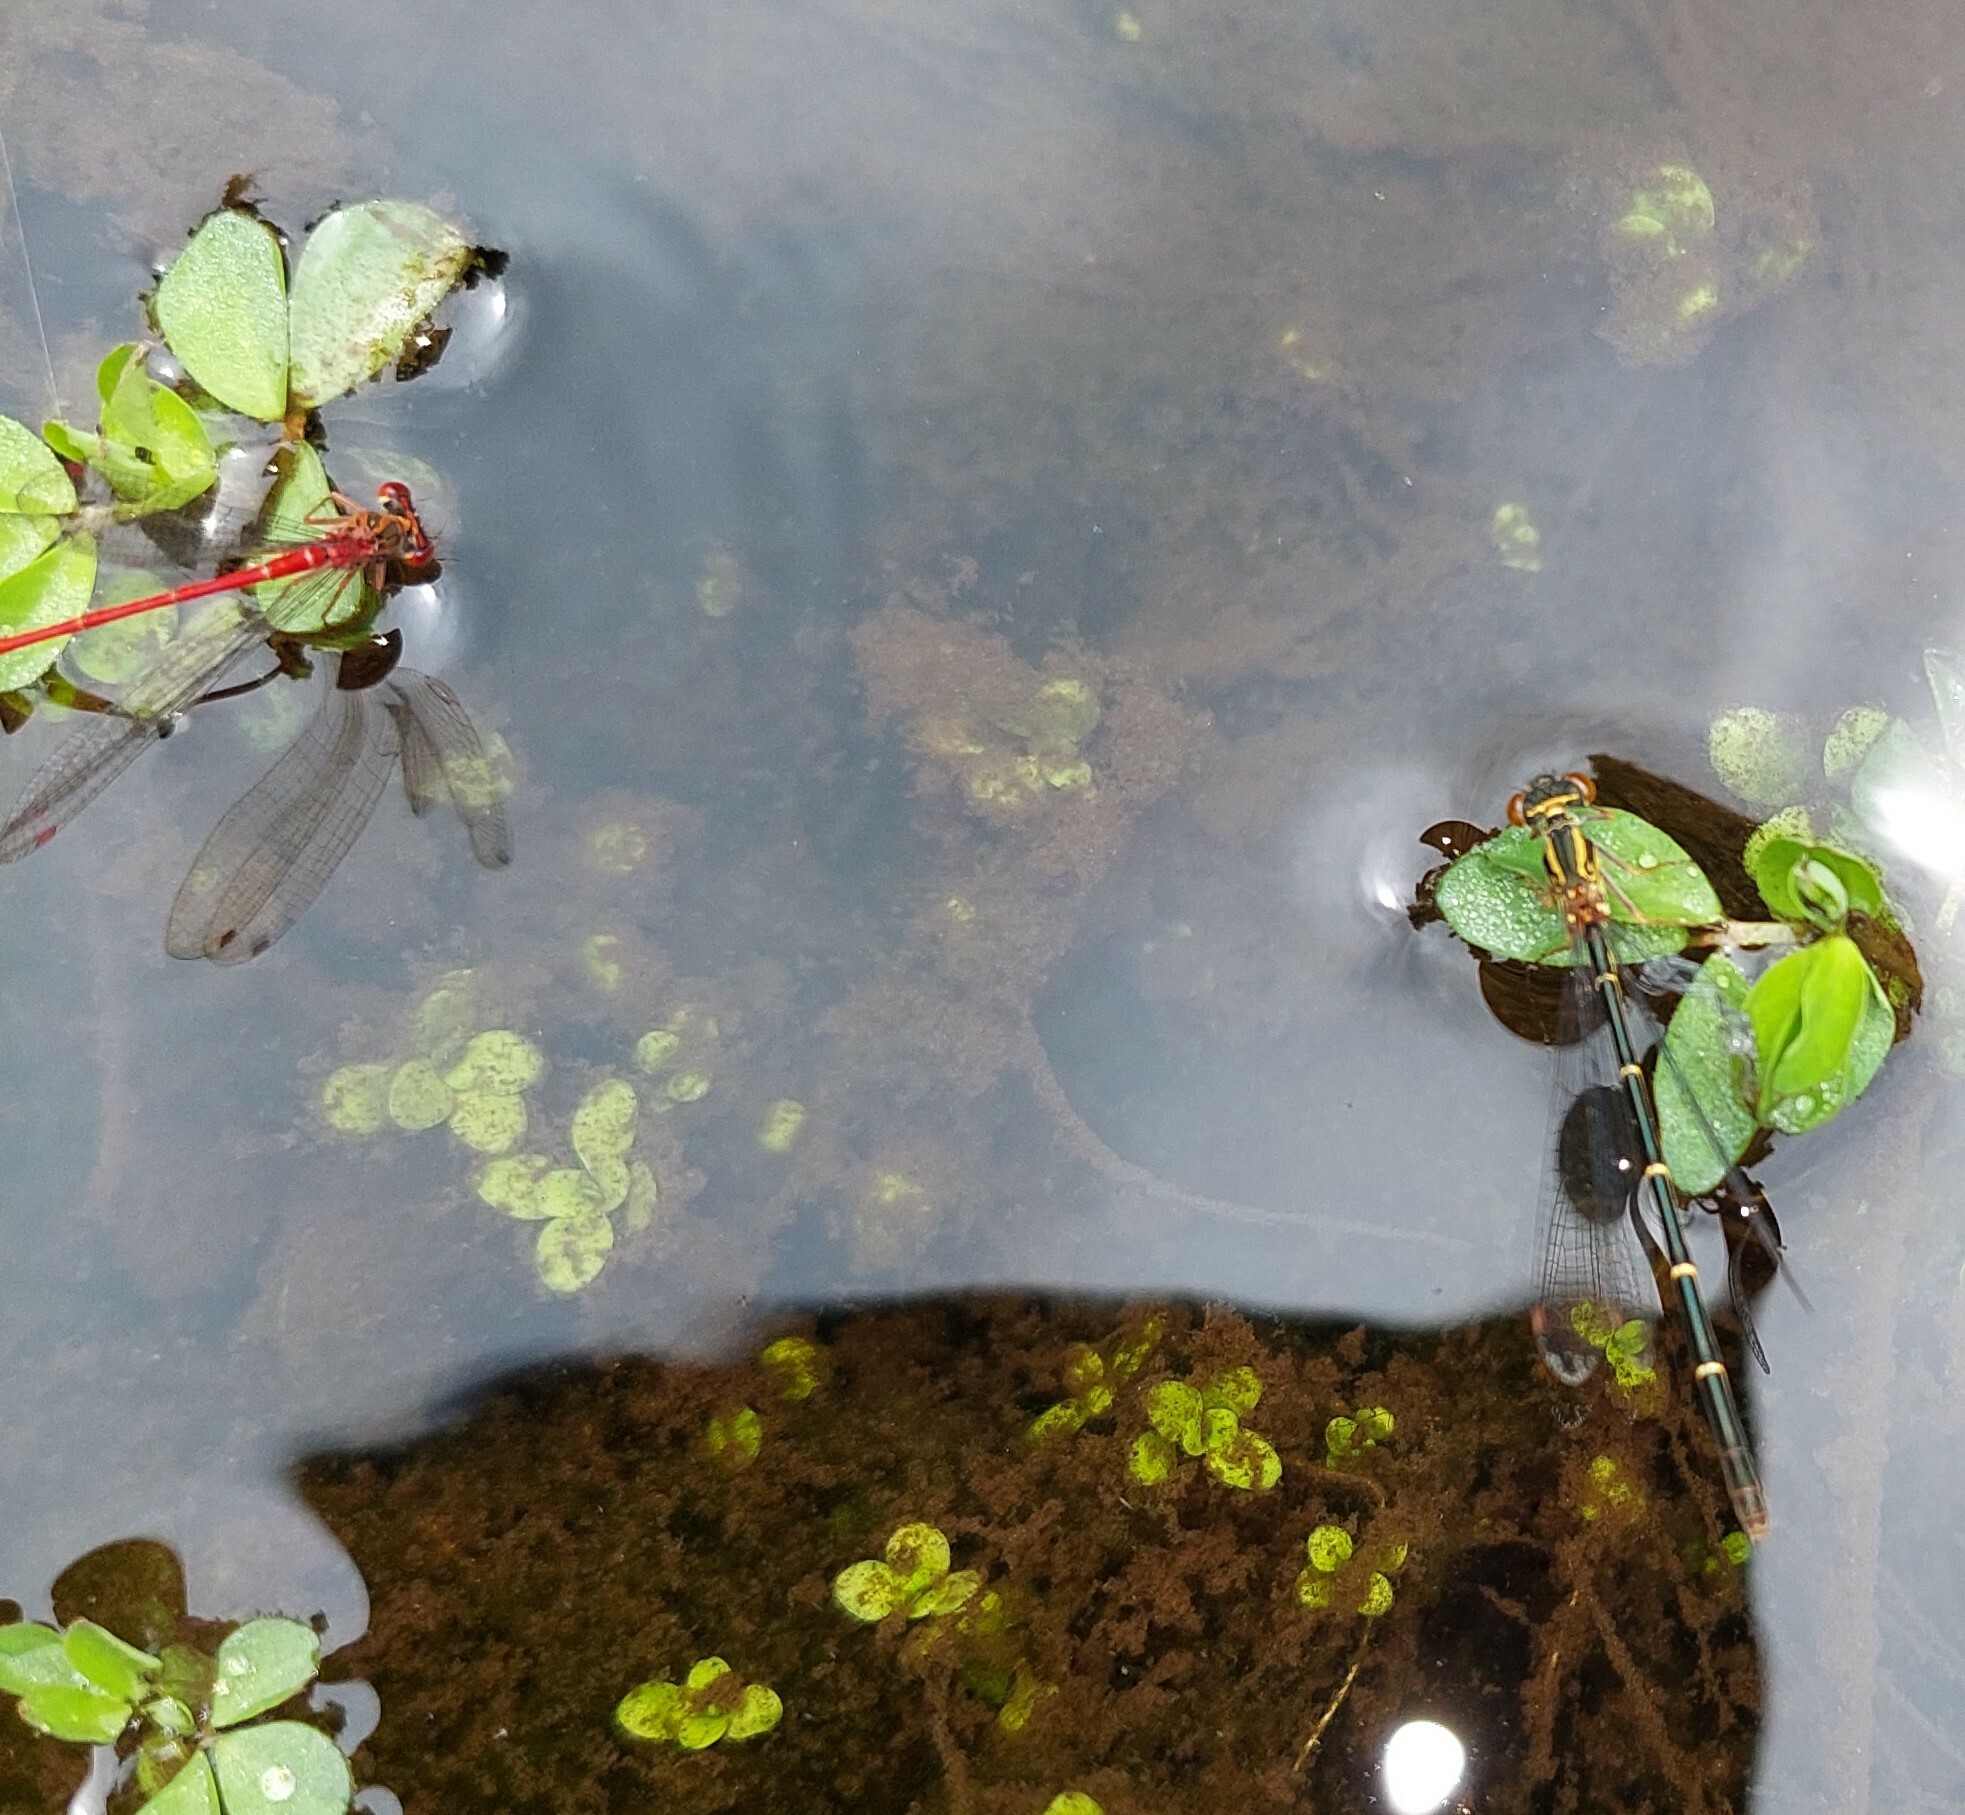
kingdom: Animalia
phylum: Arthropoda
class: Insecta
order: Odonata
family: Coenagrionidae
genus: Xanthocnemis
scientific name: Xanthocnemis zealandica
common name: Common redcoat damselfly
